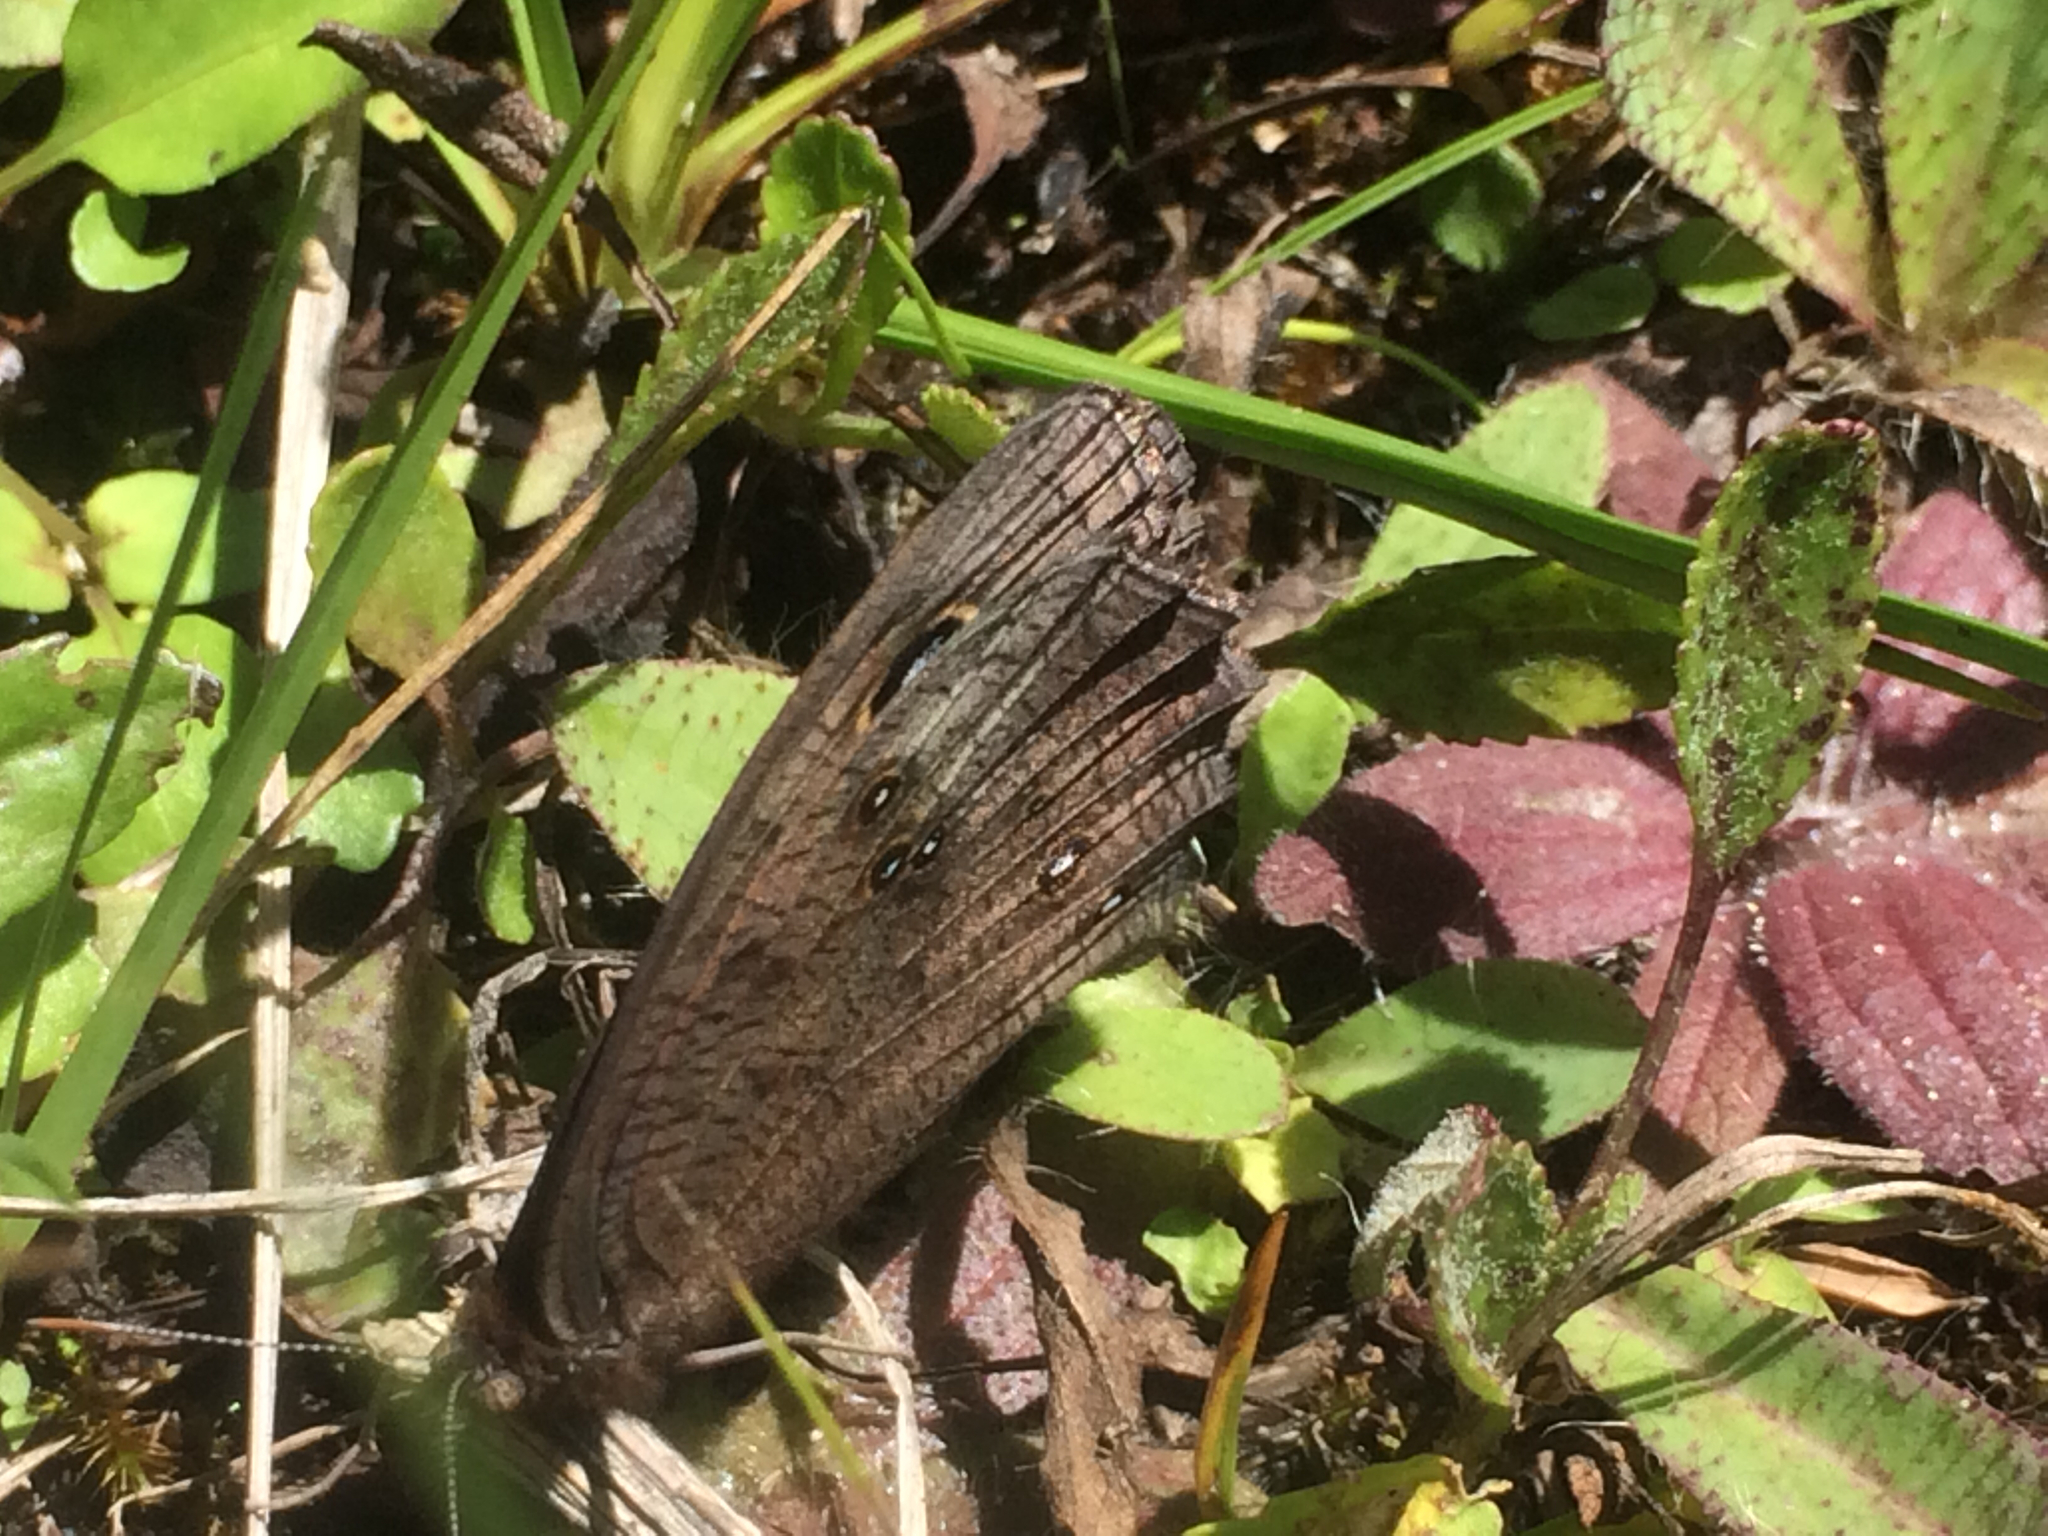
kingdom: Animalia
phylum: Arthropoda
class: Insecta
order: Lepidoptera
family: Nymphalidae
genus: Cercyonis
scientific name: Cercyonis pegala
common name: Common wood-nymph
